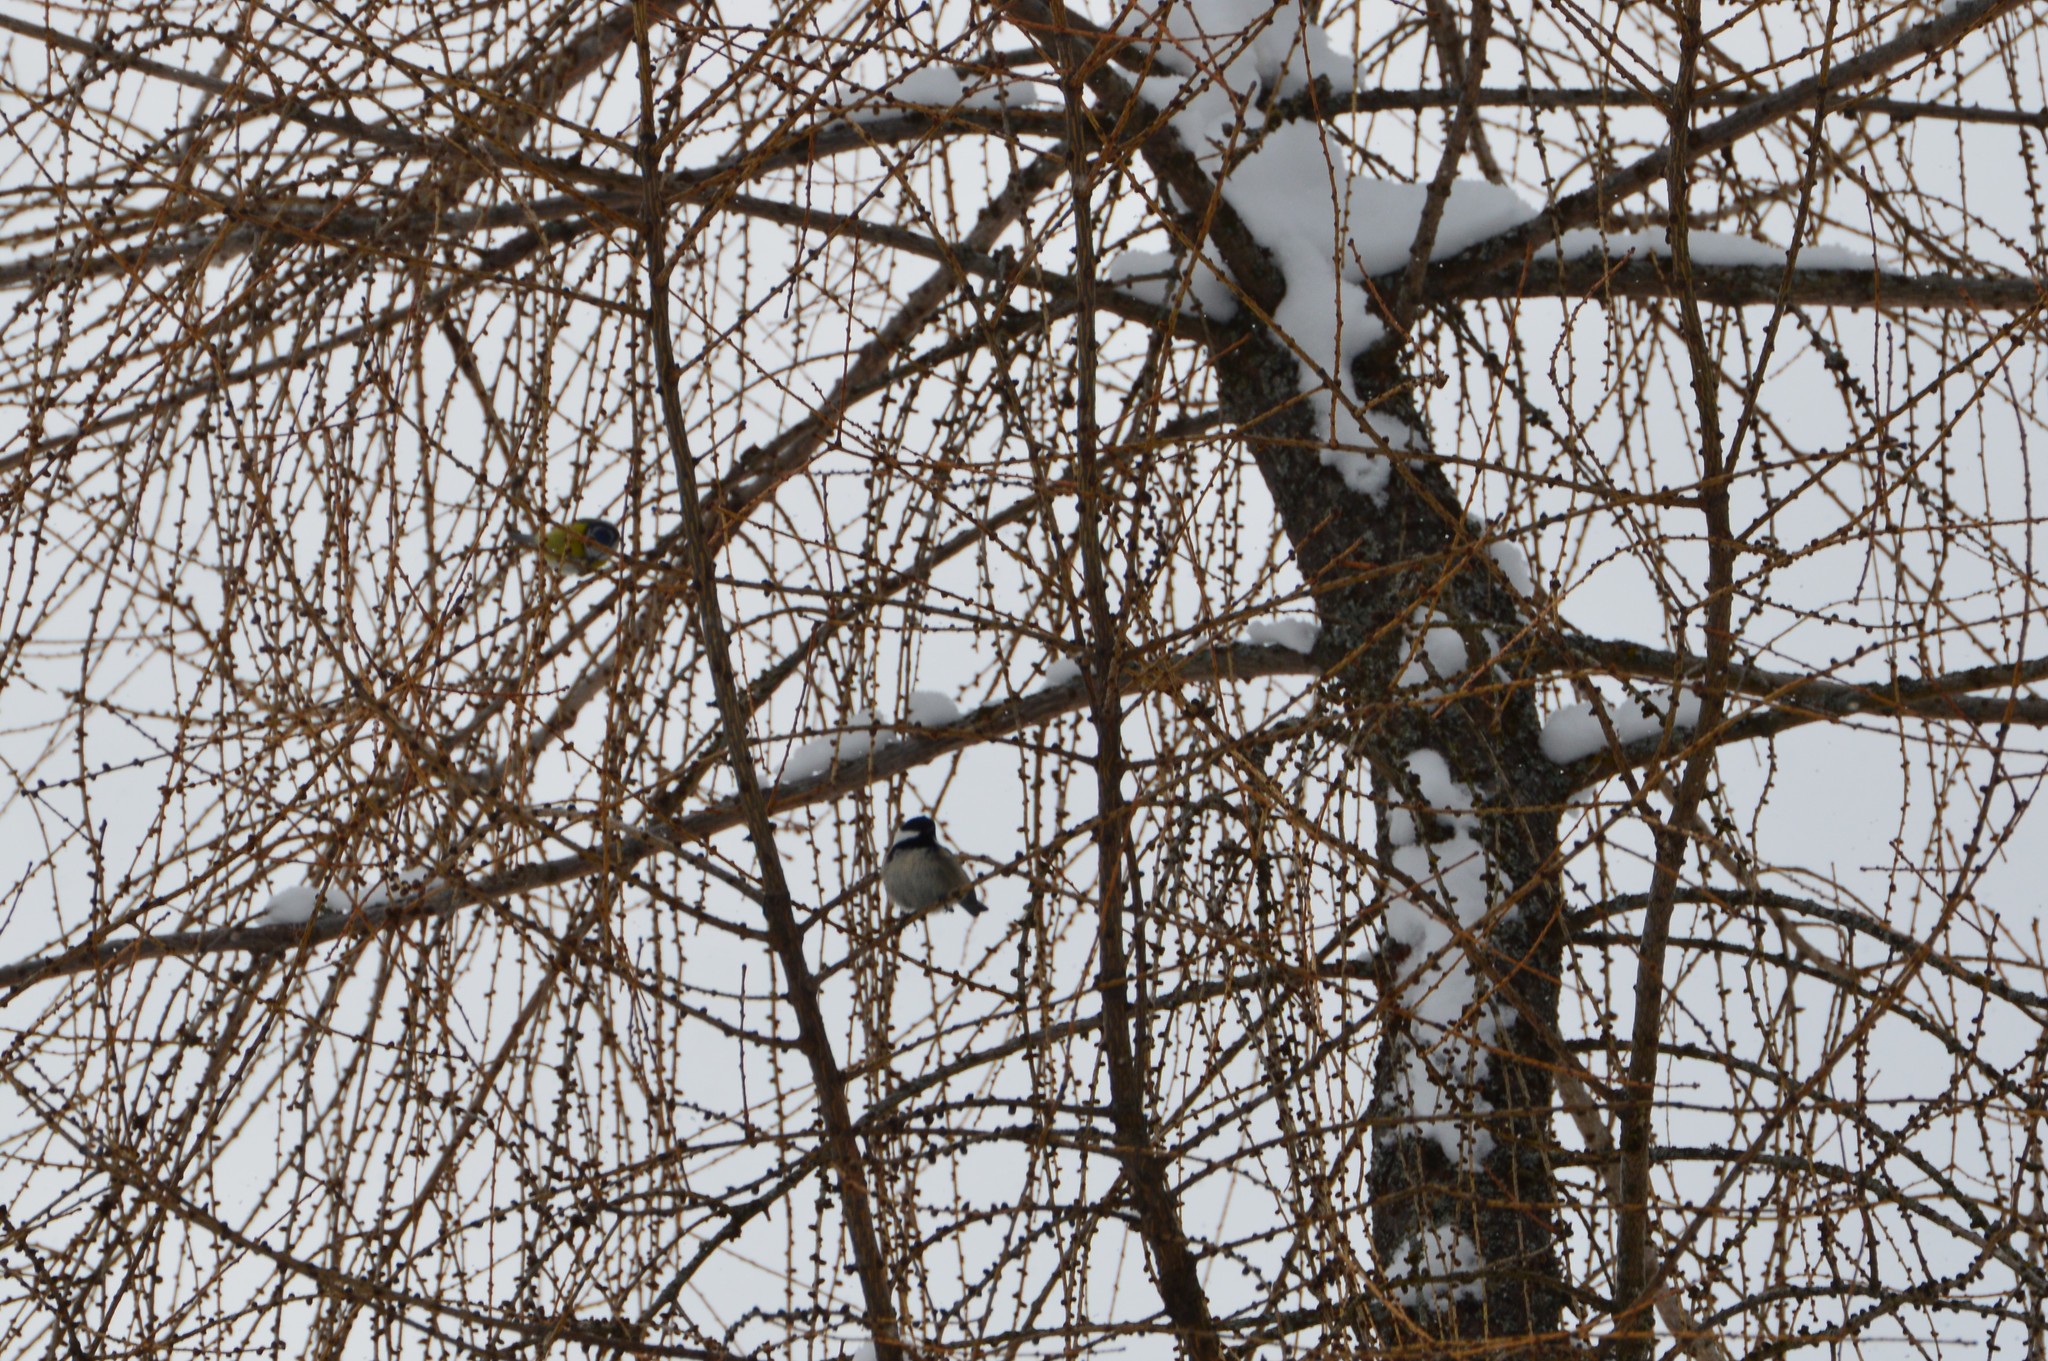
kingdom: Animalia
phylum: Chordata
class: Aves
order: Passeriformes
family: Paridae
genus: Cyanistes
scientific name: Cyanistes caeruleus
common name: Eurasian blue tit
